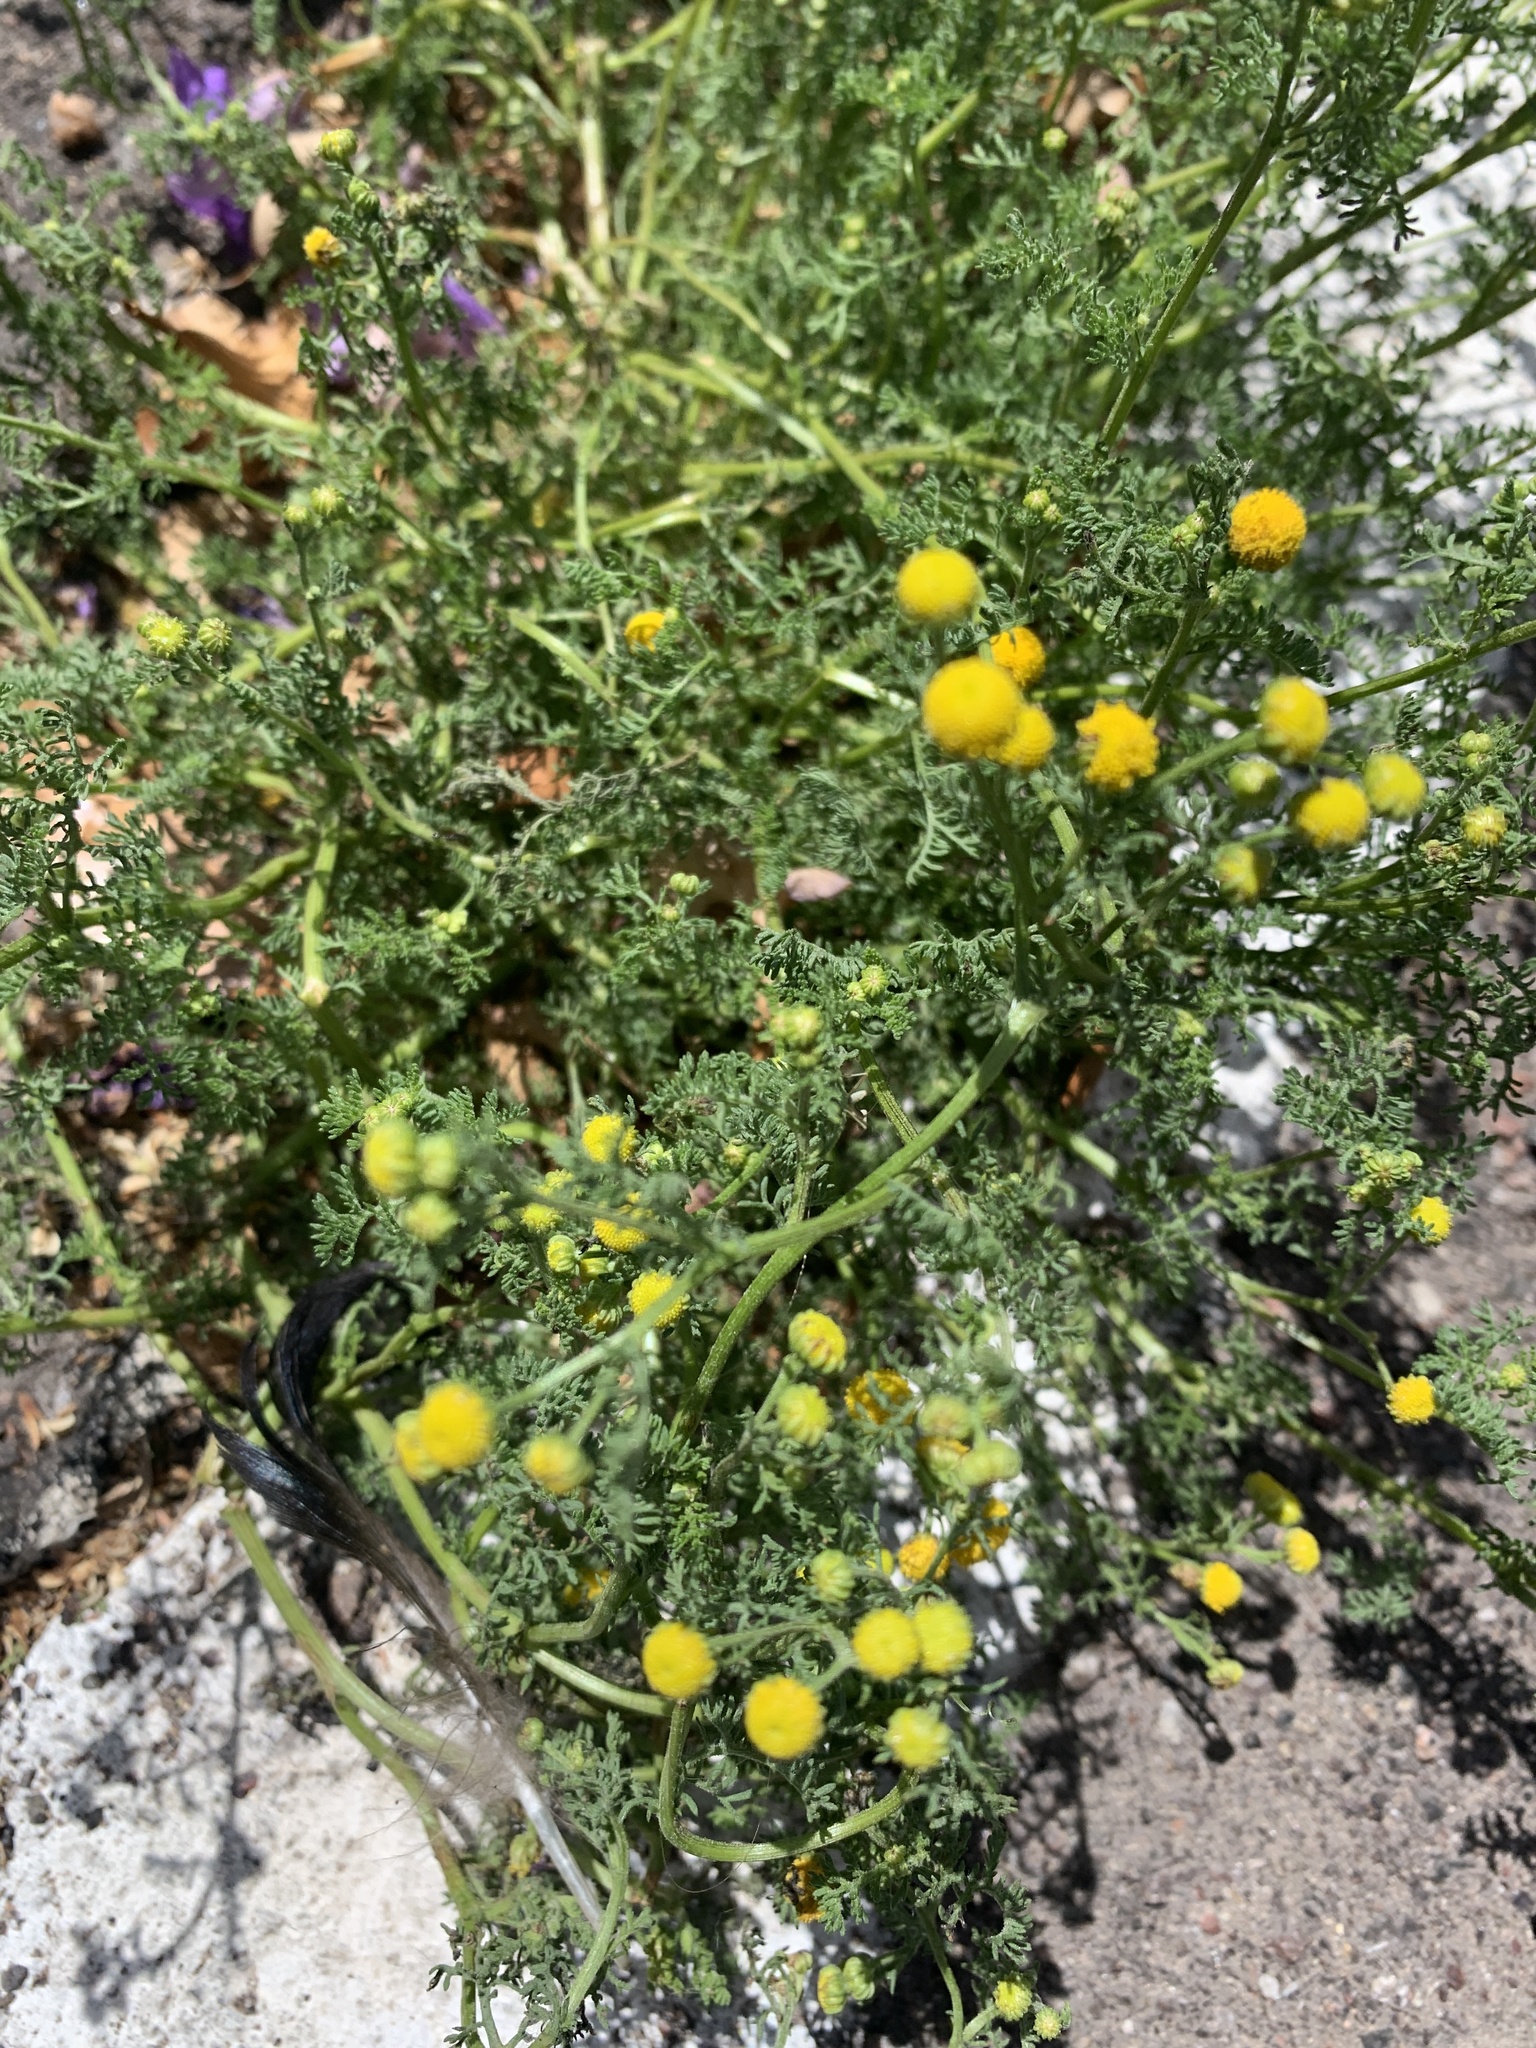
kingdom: Plantae
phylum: Tracheophyta
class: Magnoliopsida
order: Asterales
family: Asteraceae
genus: Oncosiphon
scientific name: Oncosiphon pilulifer
